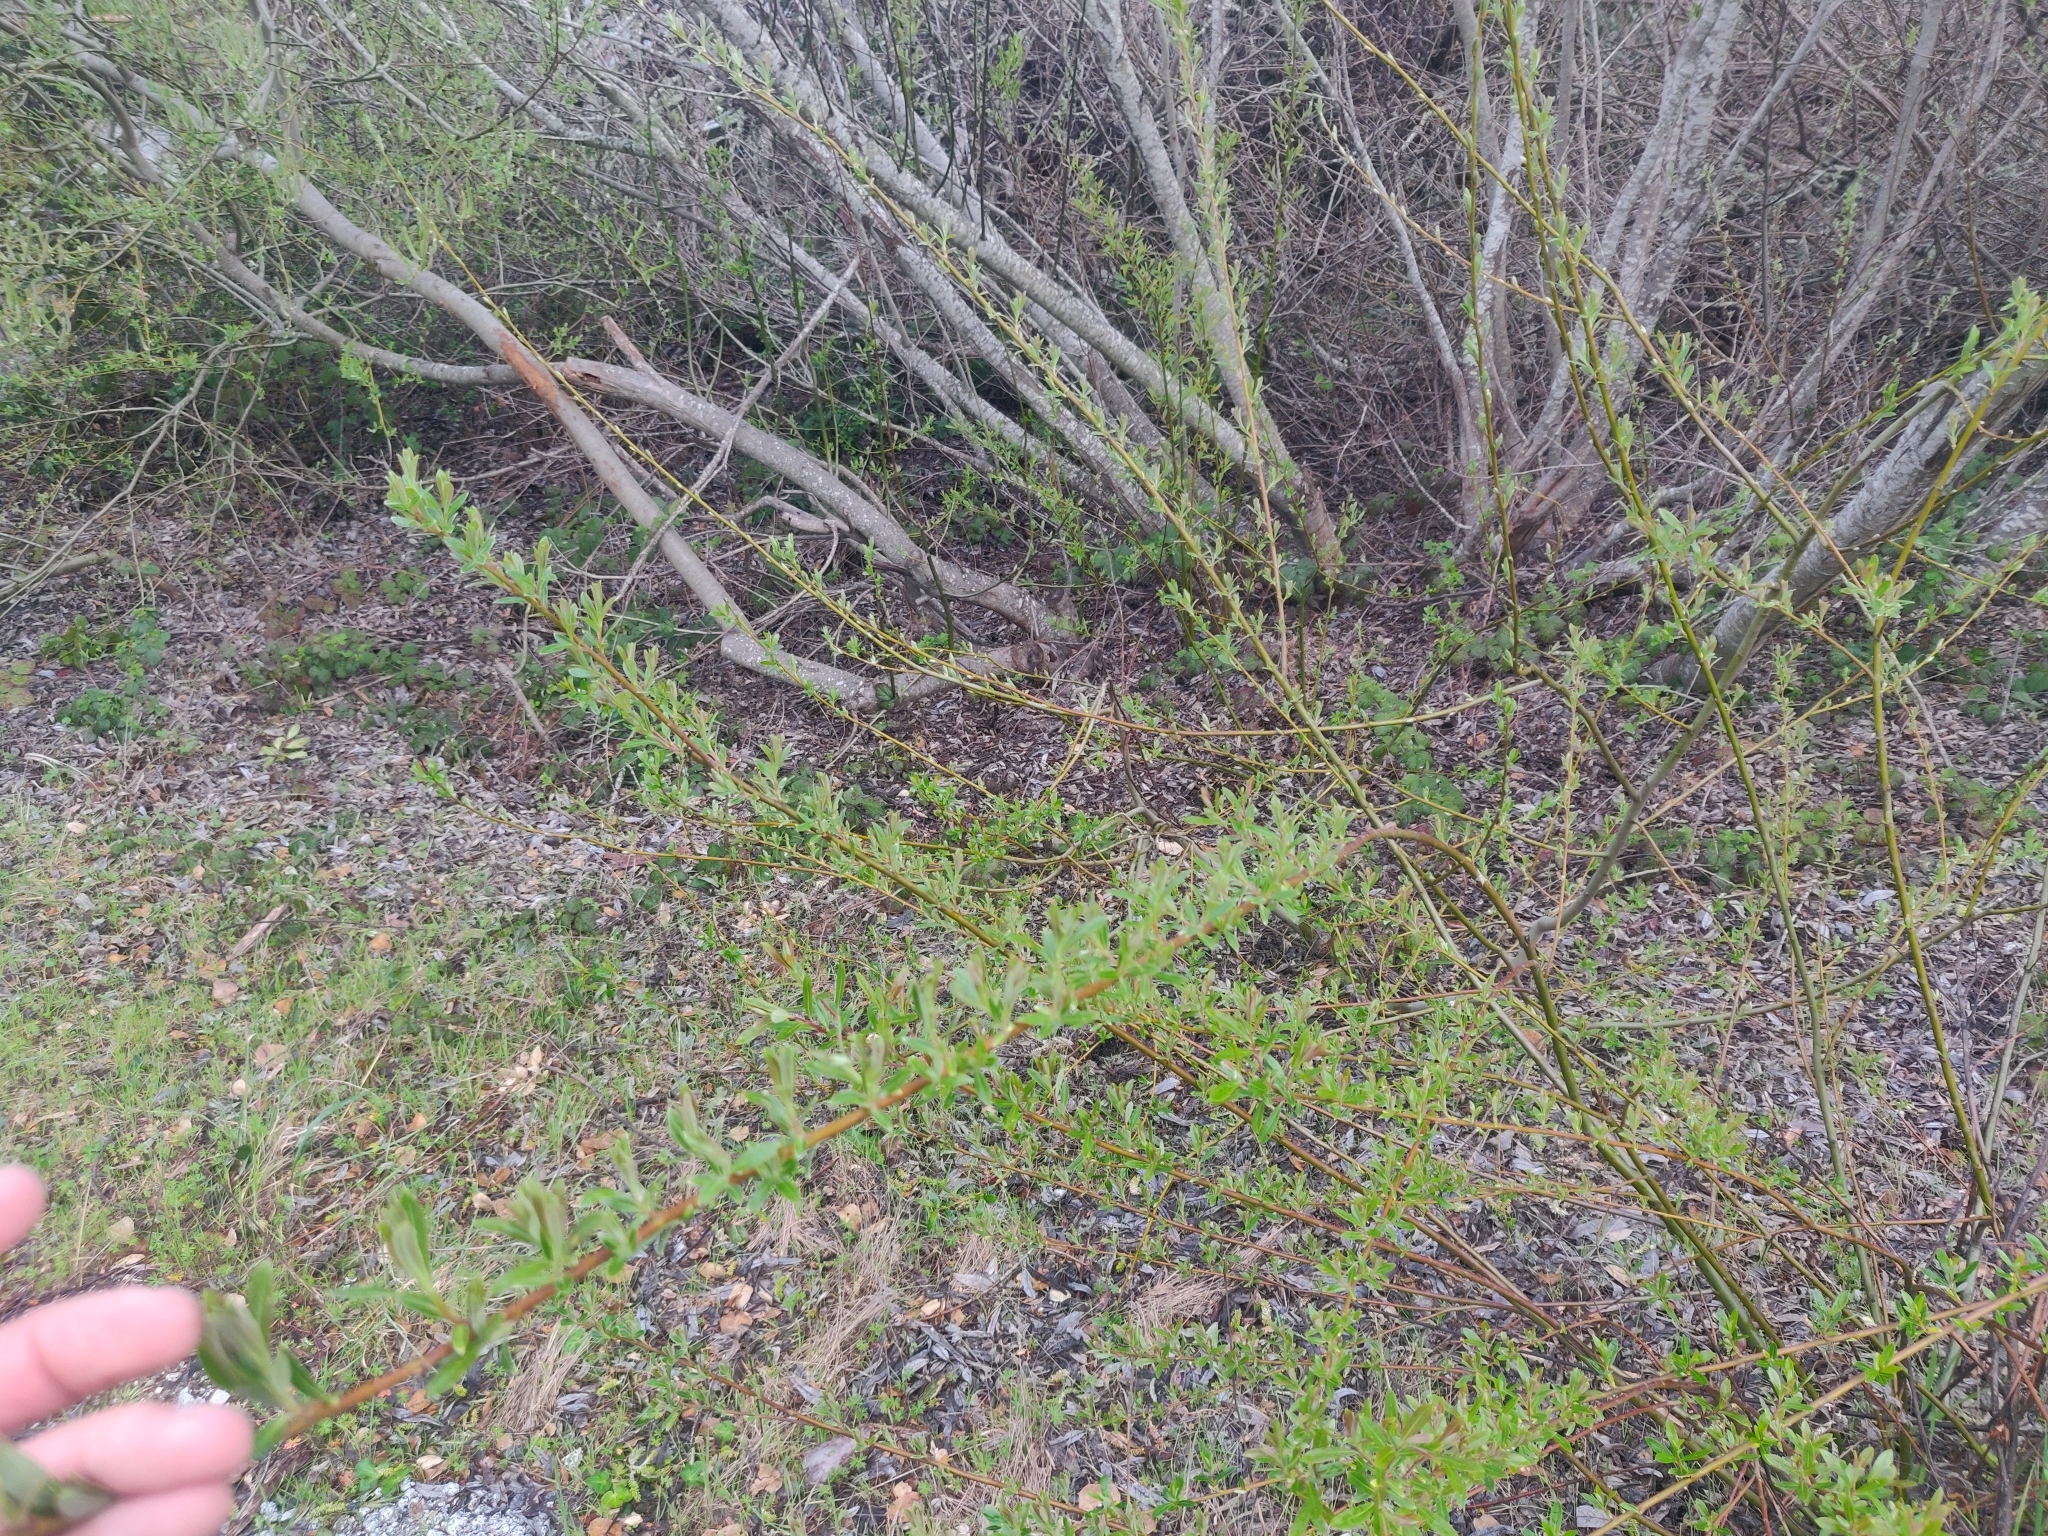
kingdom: Plantae
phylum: Tracheophyta
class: Magnoliopsida
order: Malpighiales
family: Salicaceae
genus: Salix
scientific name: Salix lasiolepis
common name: Arroyo willow
